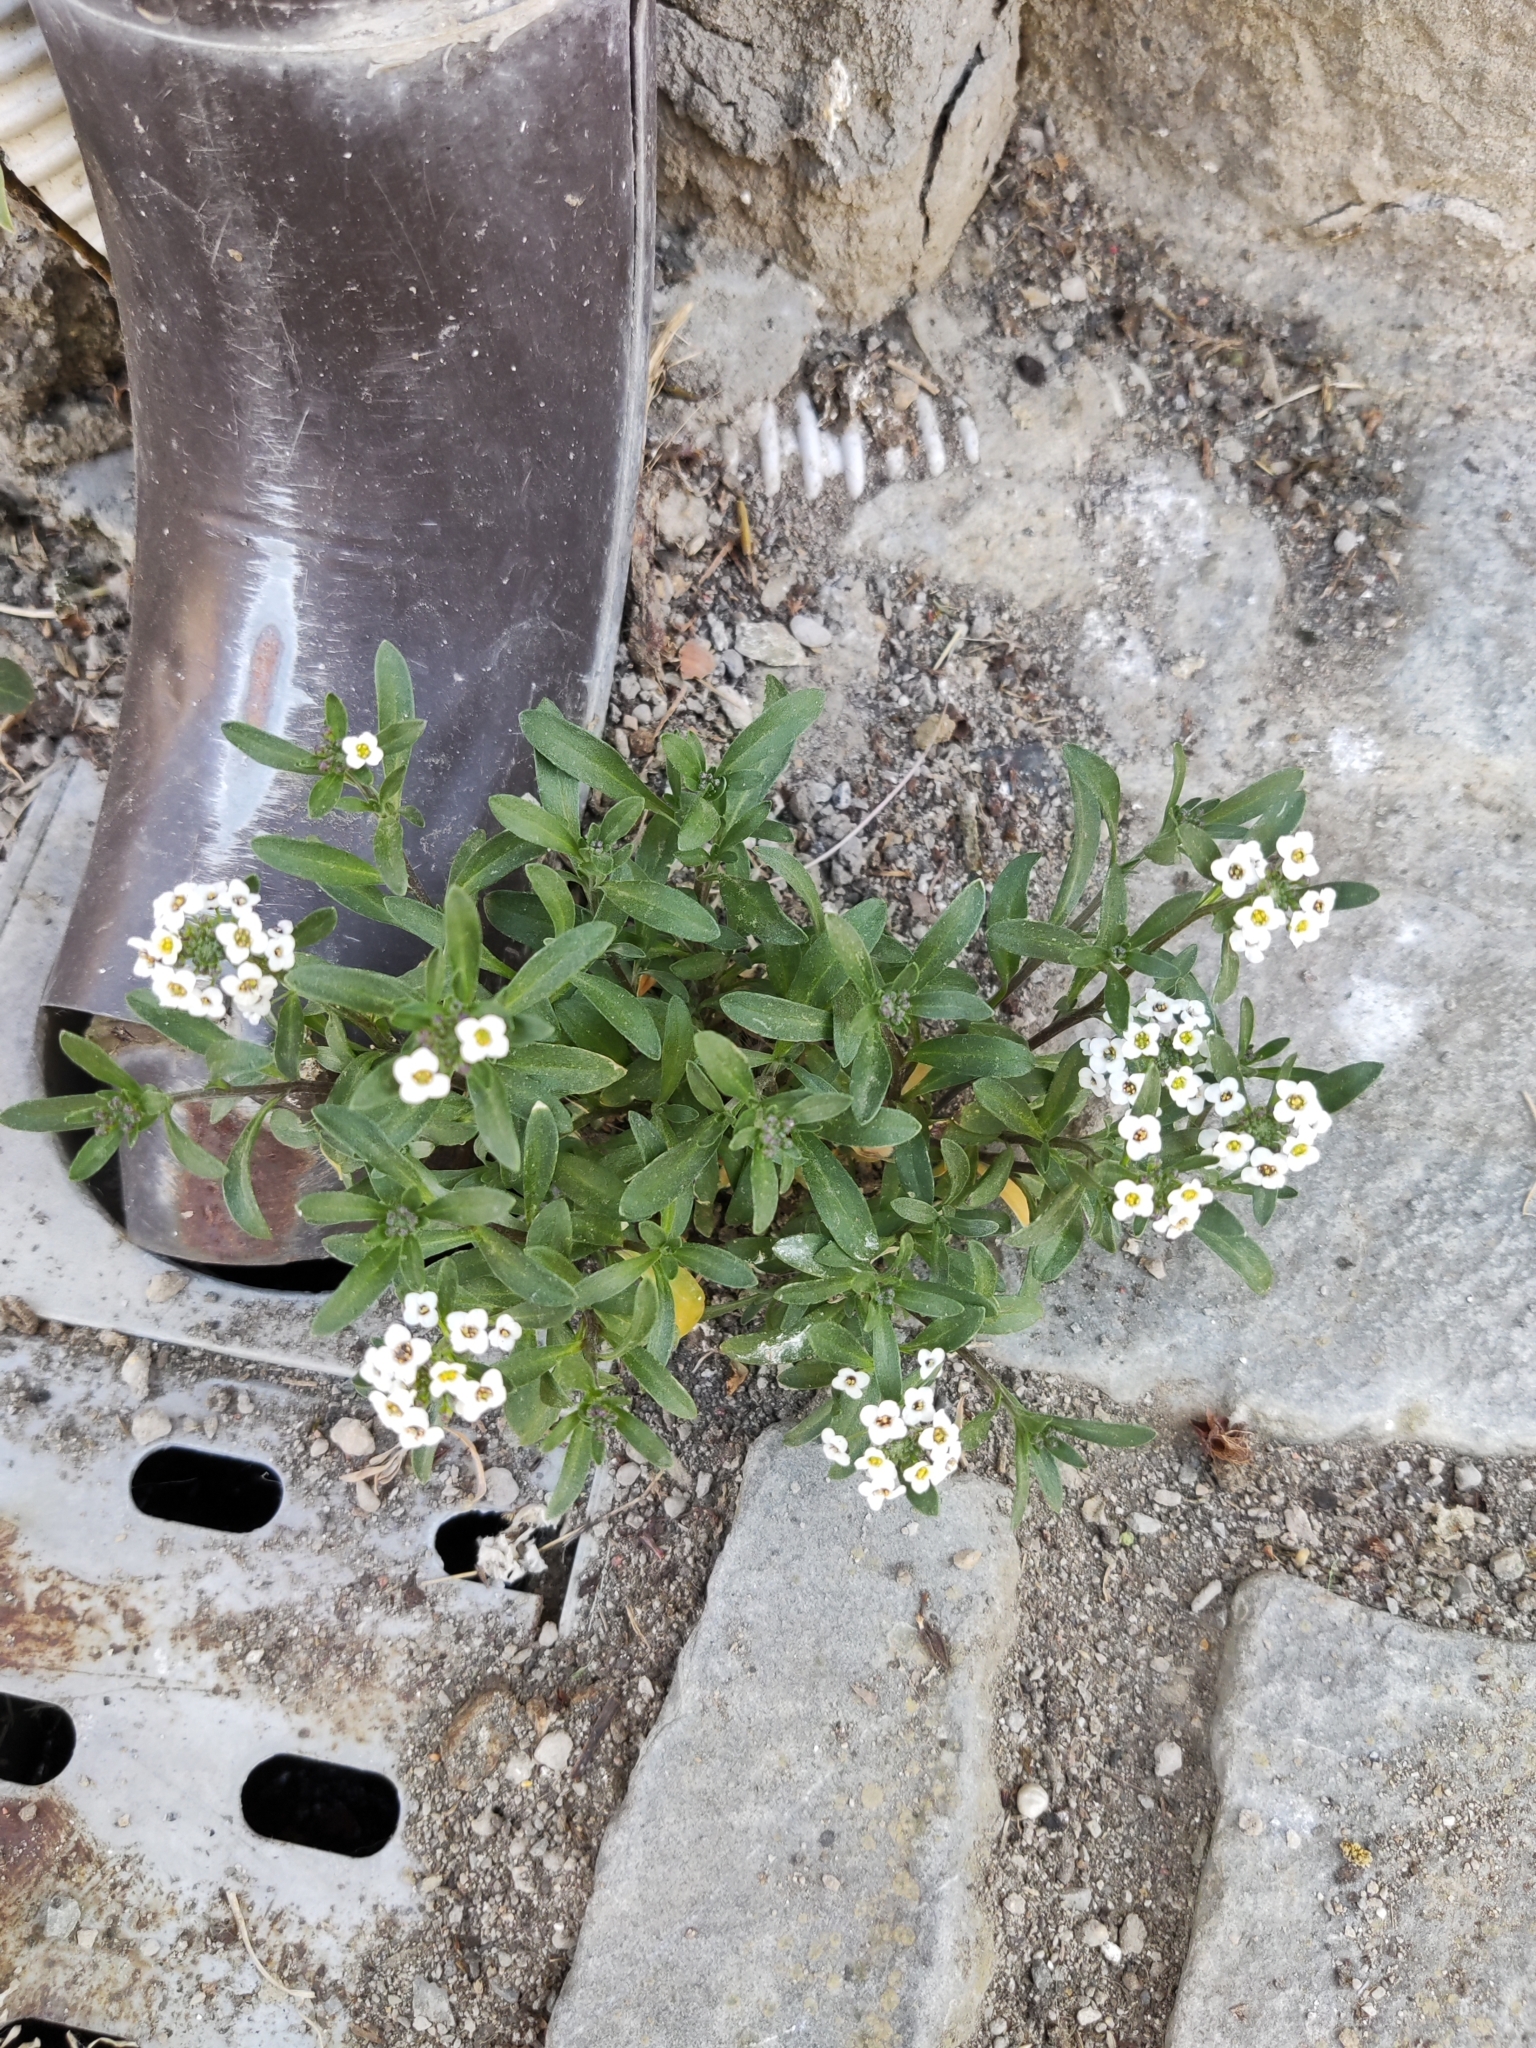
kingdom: Plantae
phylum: Tracheophyta
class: Magnoliopsida
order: Brassicales
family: Brassicaceae
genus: Lobularia
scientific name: Lobularia maritima
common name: Sweet alison
